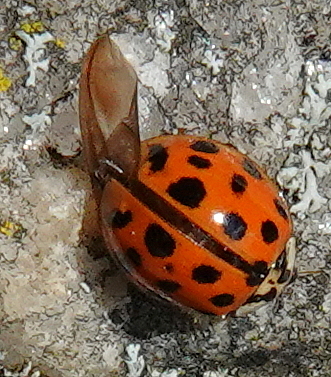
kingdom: Animalia
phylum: Arthropoda
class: Insecta
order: Coleoptera
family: Coccinellidae
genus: Harmonia
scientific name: Harmonia axyridis
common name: Harlequin ladybird
